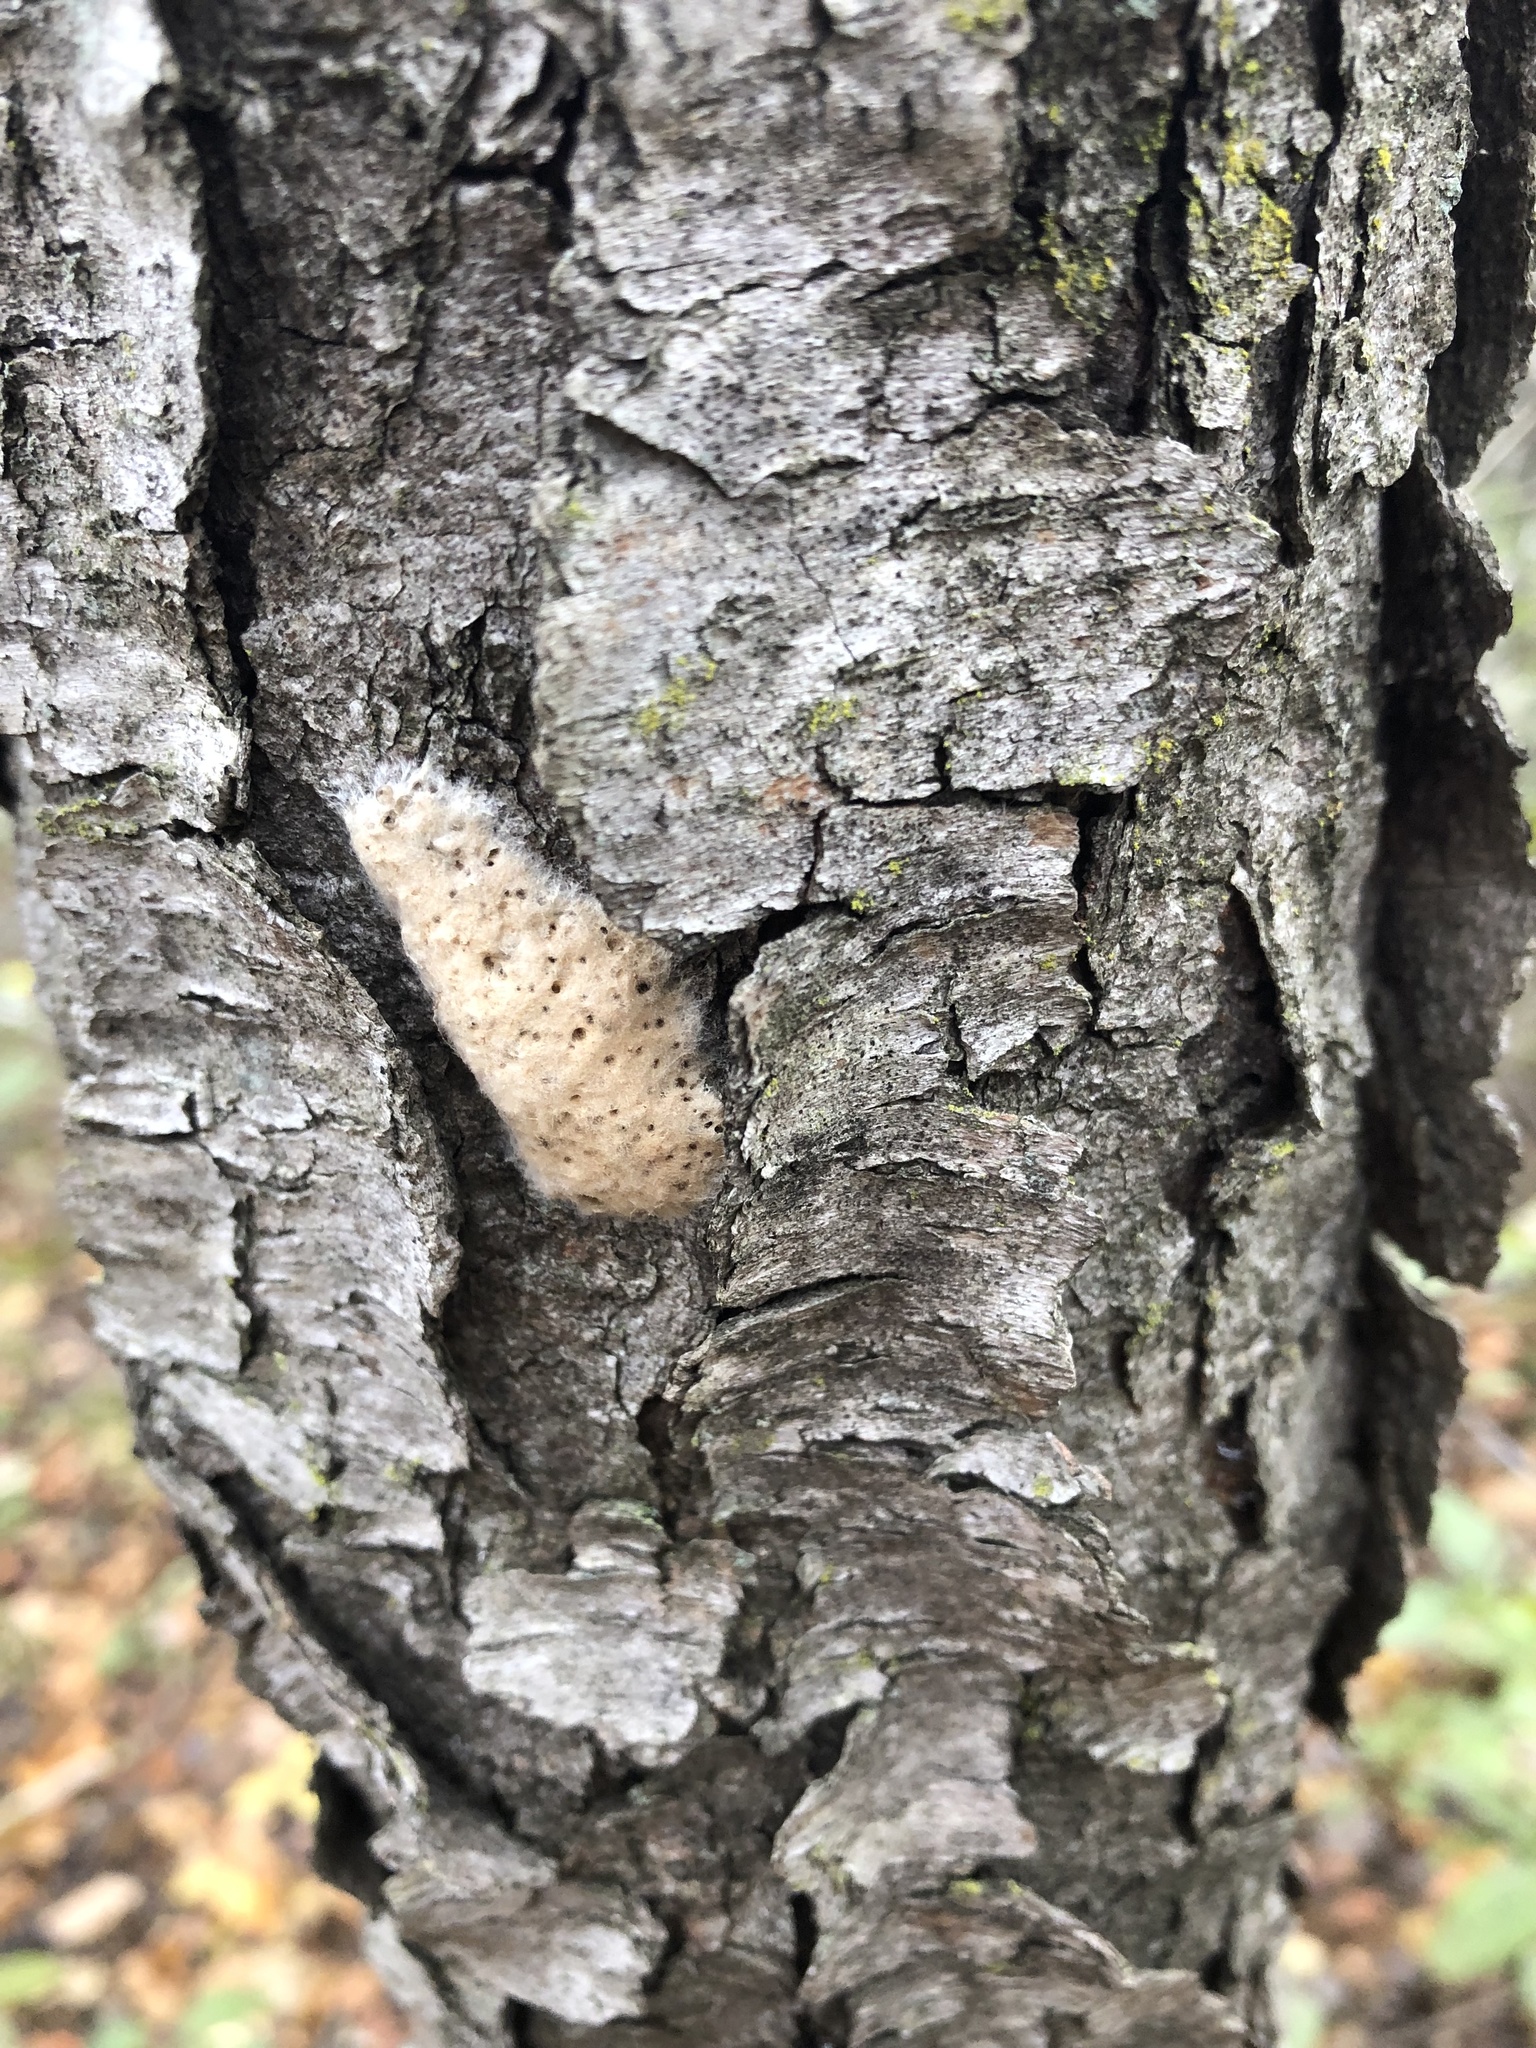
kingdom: Animalia
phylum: Arthropoda
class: Insecta
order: Lepidoptera
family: Erebidae
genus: Lymantria
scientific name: Lymantria dispar
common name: Gypsy moth
